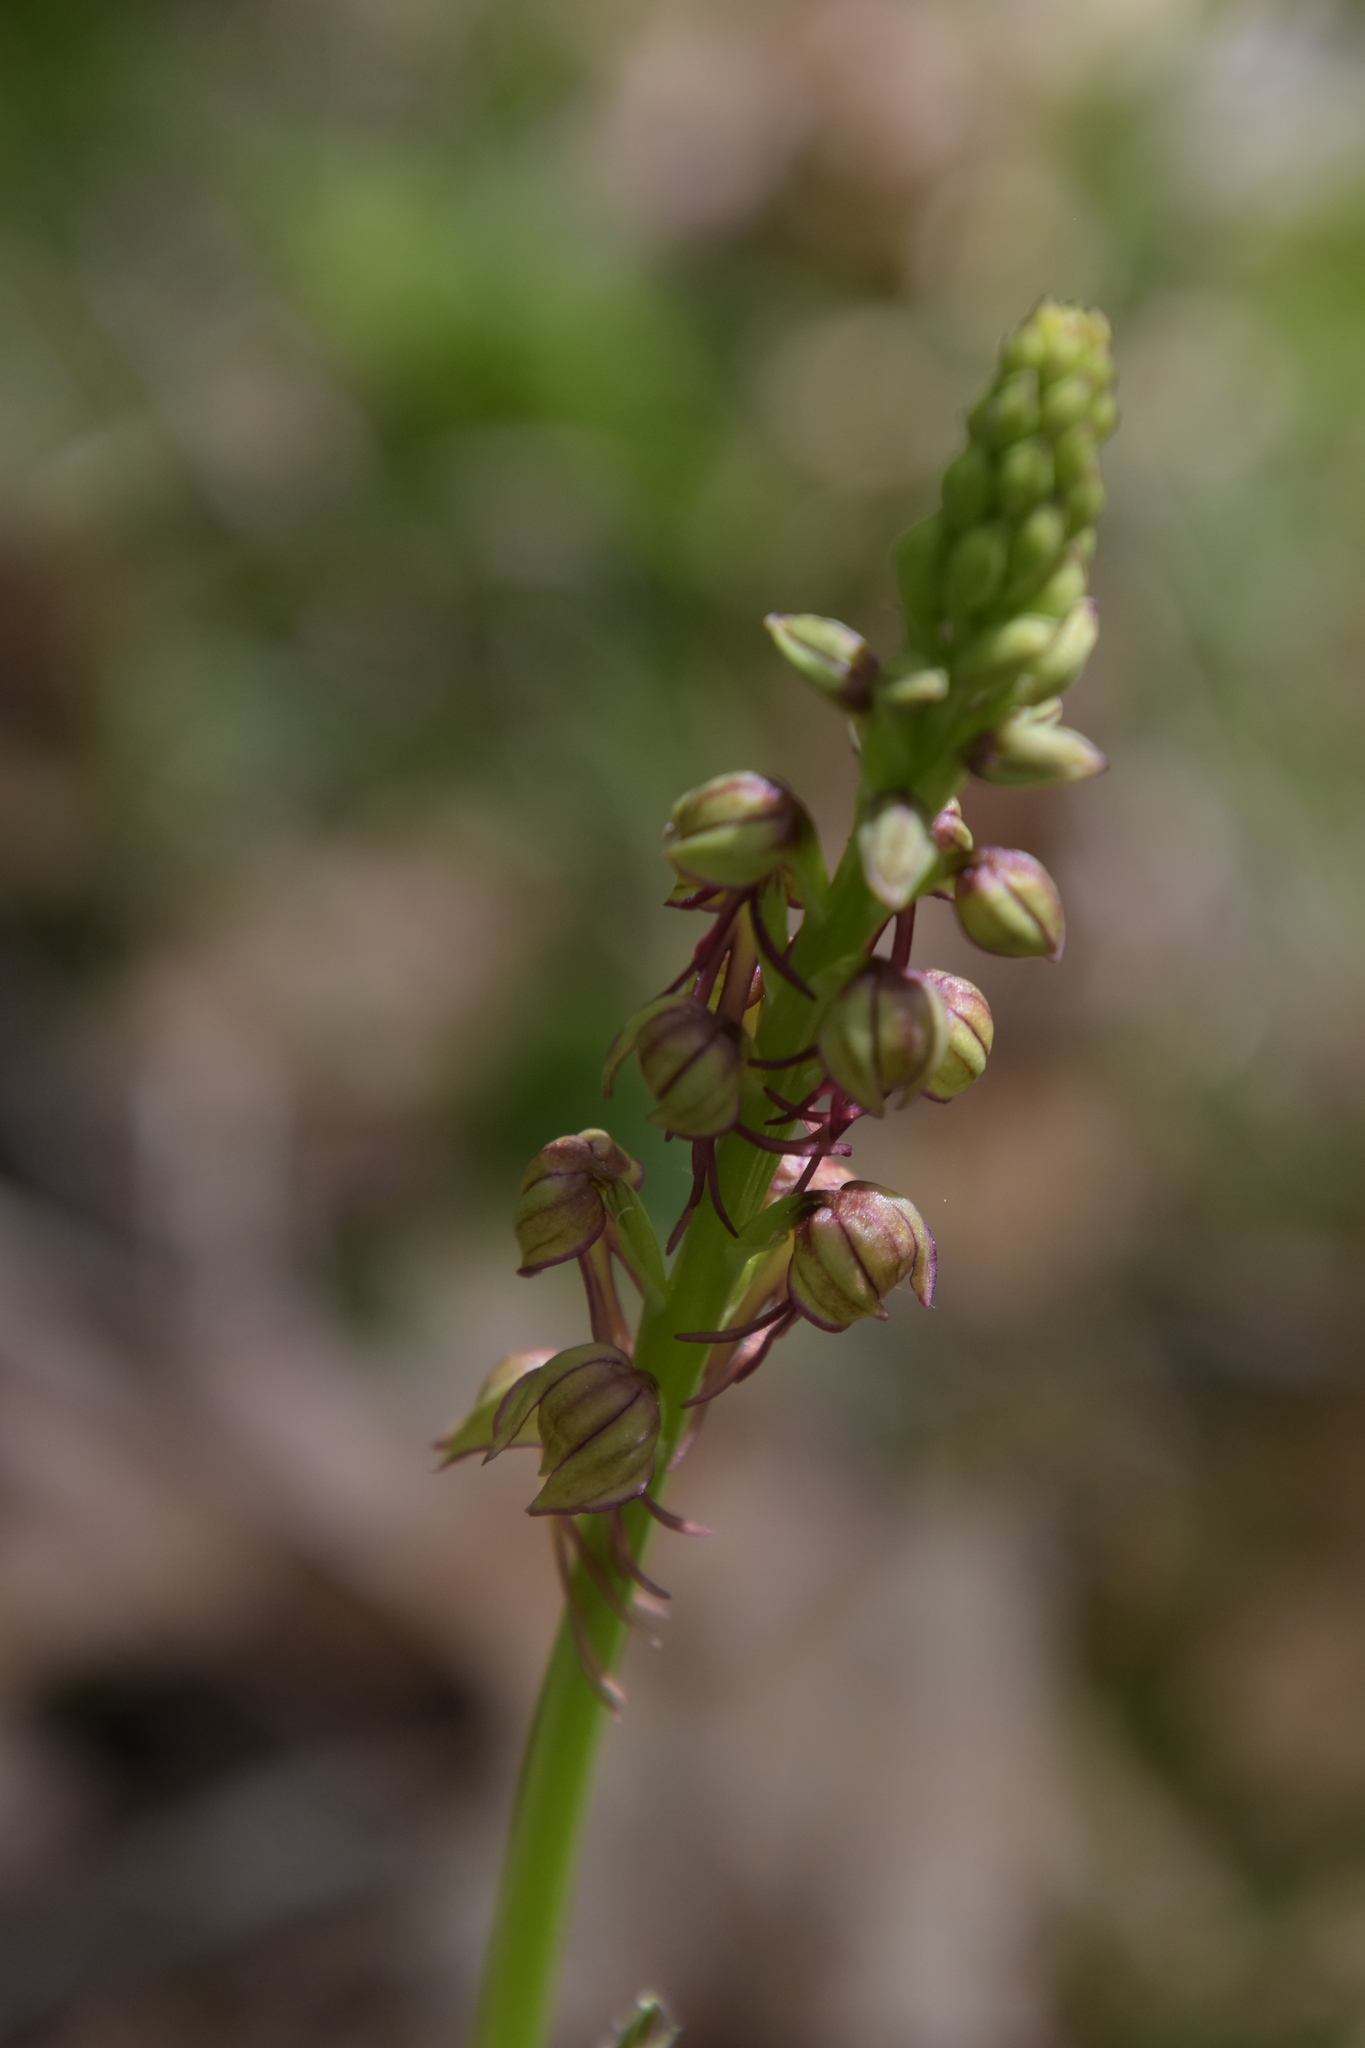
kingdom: Plantae
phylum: Tracheophyta
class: Liliopsida
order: Asparagales
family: Orchidaceae
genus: Orchis
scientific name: Orchis anthropophora
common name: Man orchid
